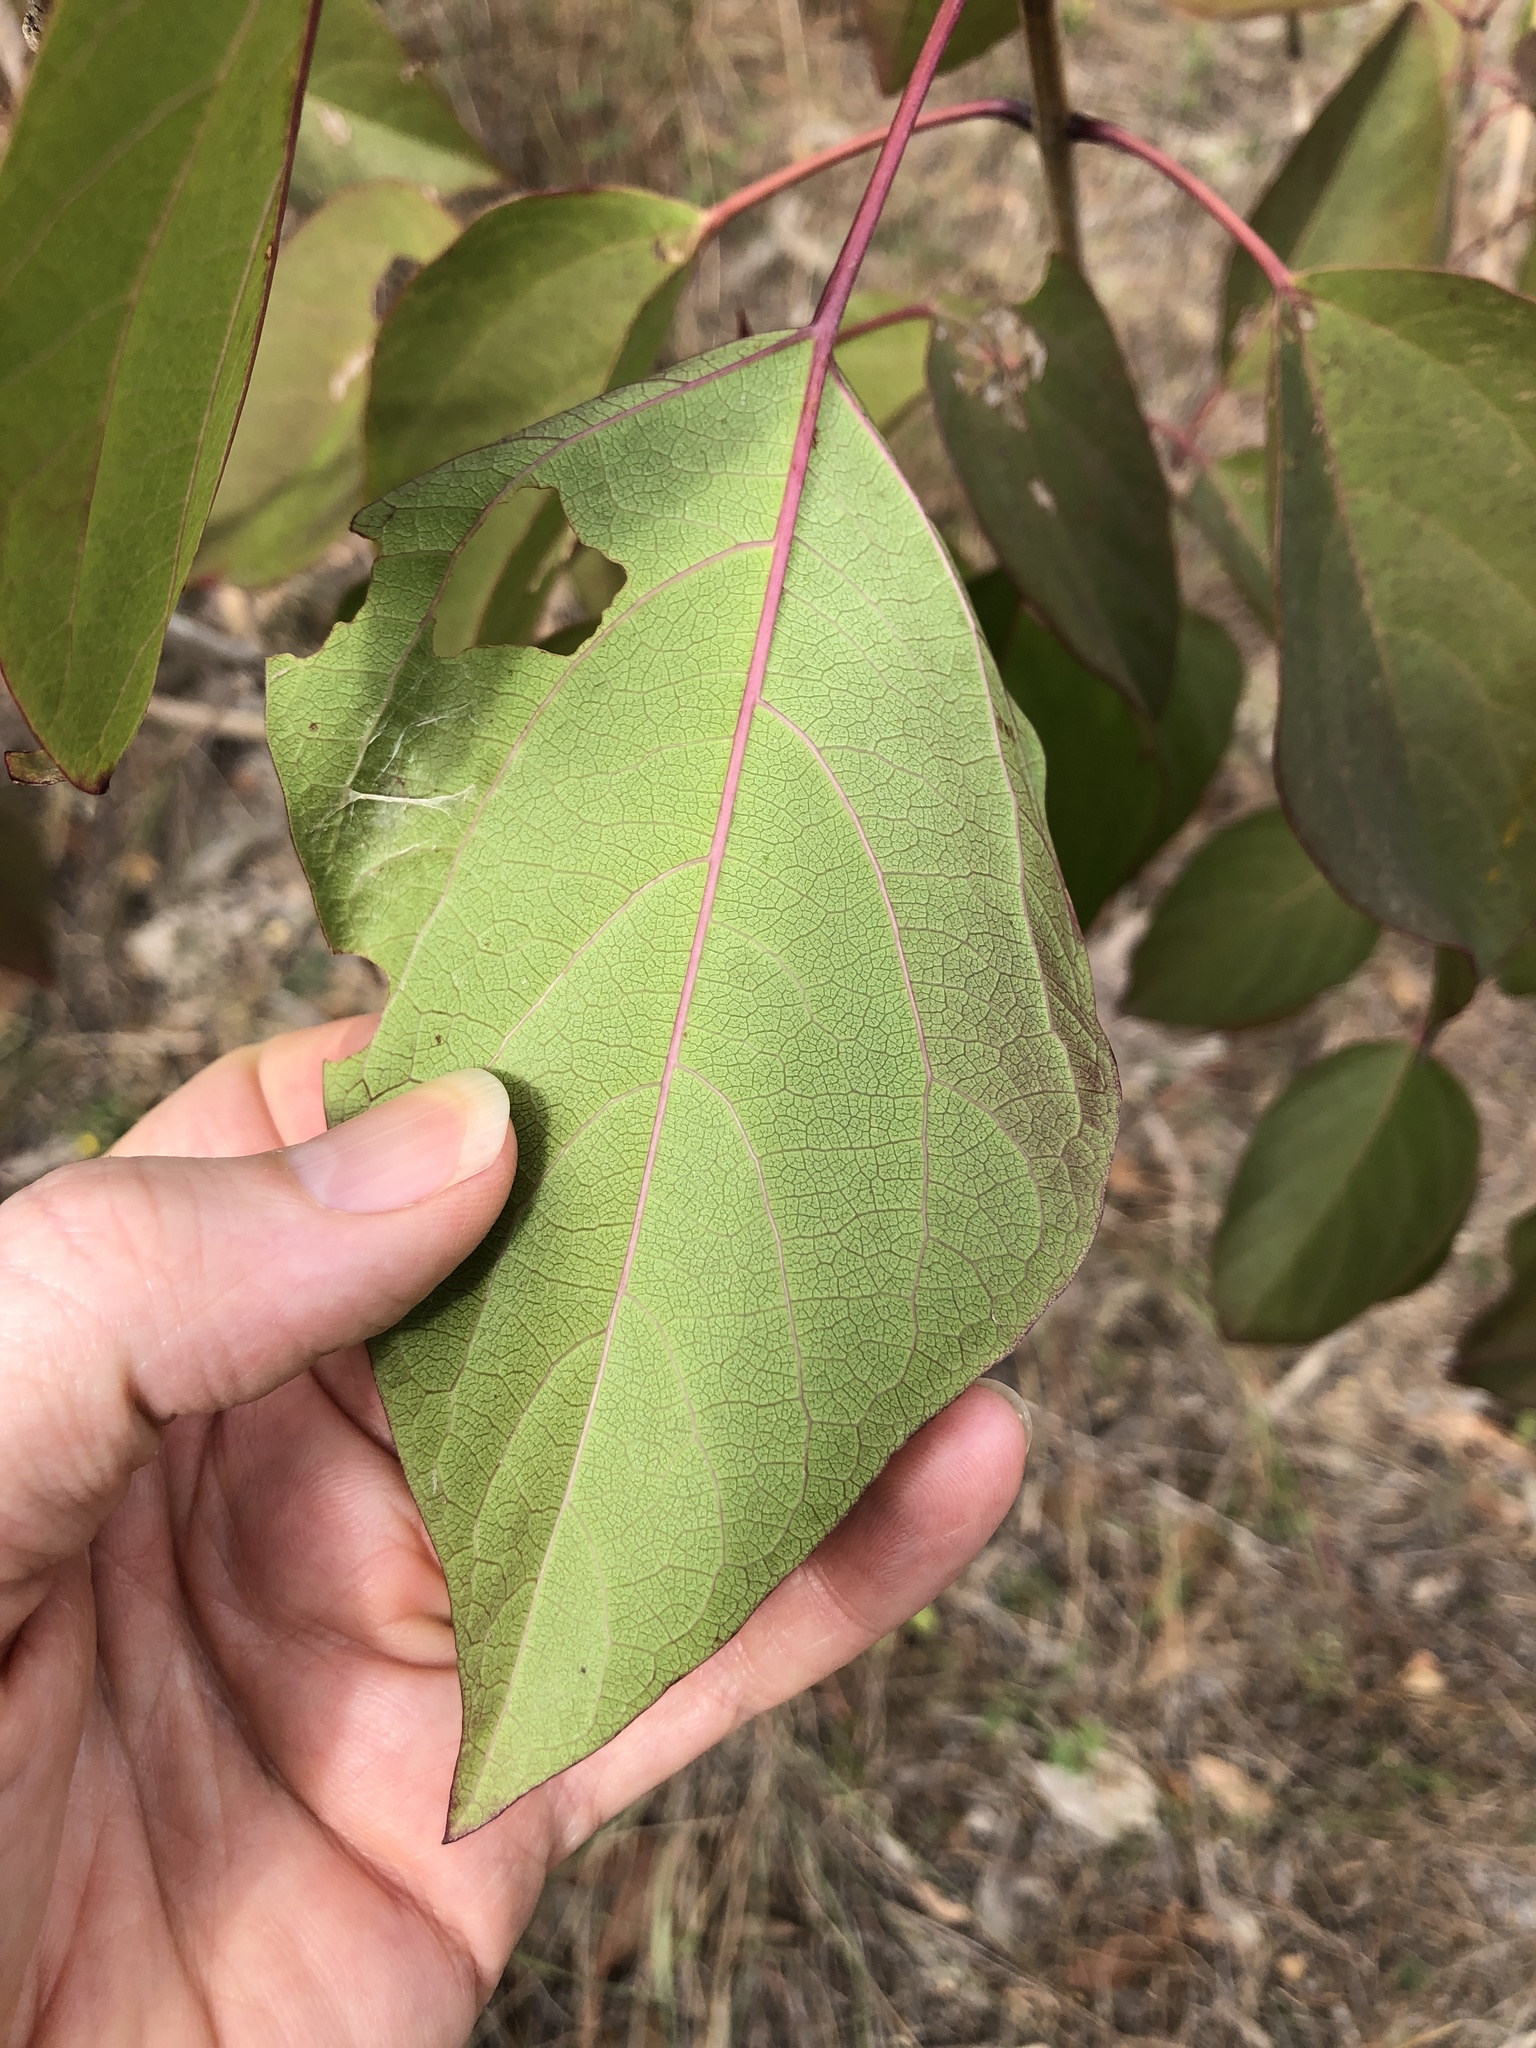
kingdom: Plantae
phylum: Tracheophyta
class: Magnoliopsida
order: Lamiales
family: Lamiaceae
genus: Clerodendrum
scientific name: Clerodendrum floribundum
